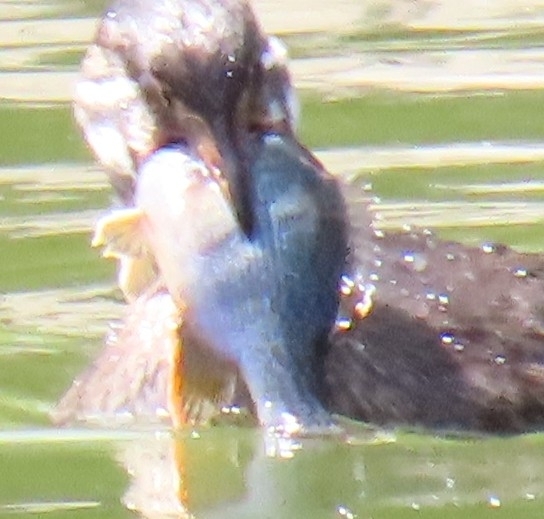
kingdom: Animalia
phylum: Chordata
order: Perciformes
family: Centrarchidae
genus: Lepomis
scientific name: Lepomis cyanellus
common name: Green sunfish
